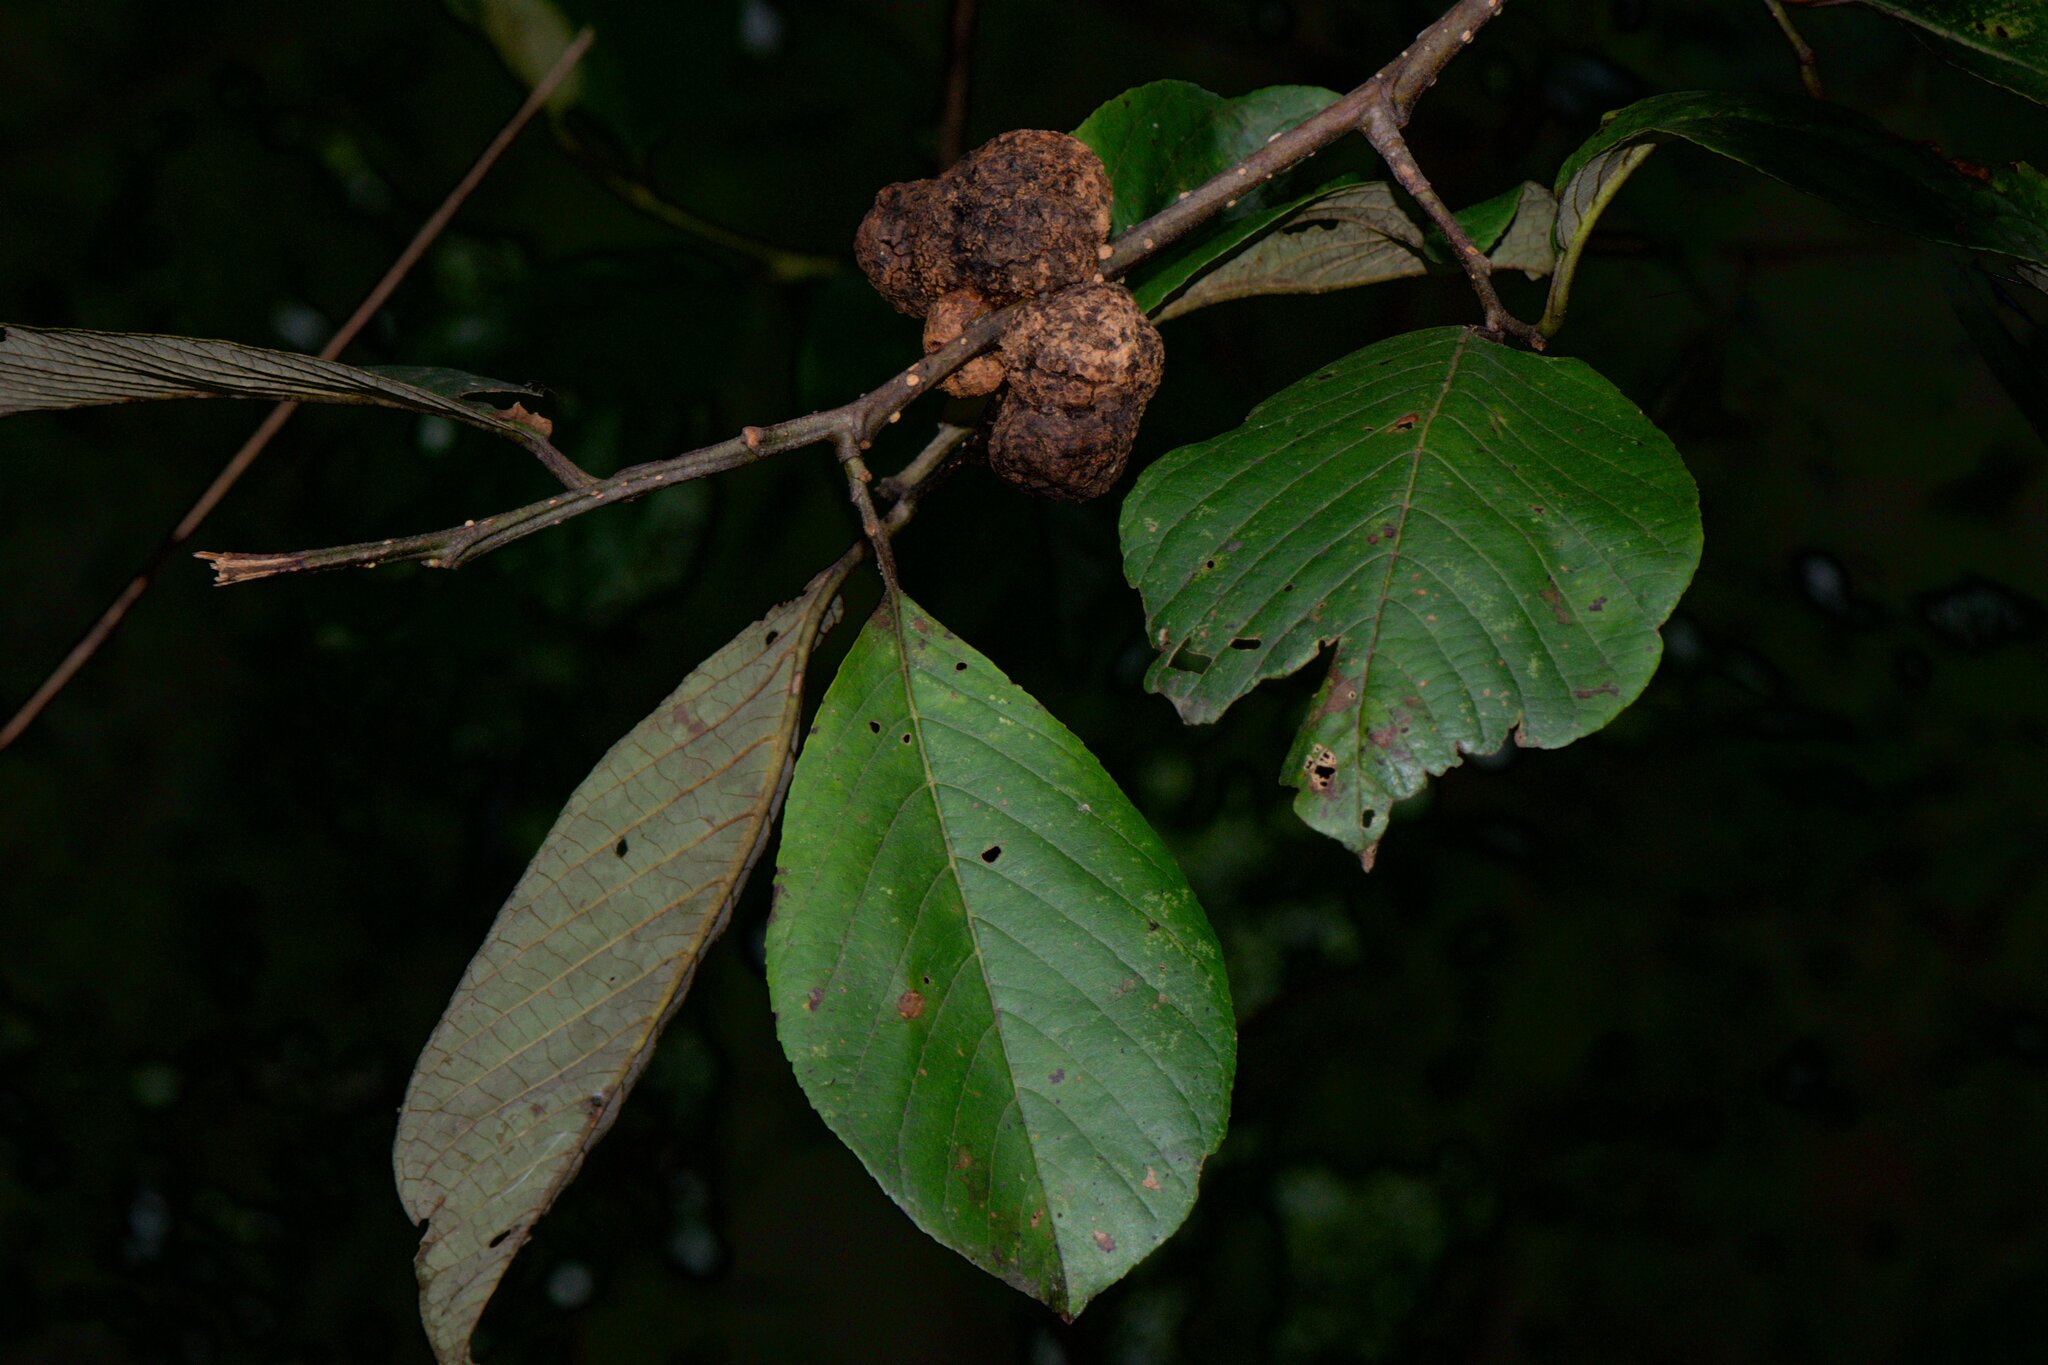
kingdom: Plantae
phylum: Tracheophyta
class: Magnoliopsida
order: Fagales
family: Betulaceae
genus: Alnus
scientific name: Alnus nepalensis
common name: Nepal alder
